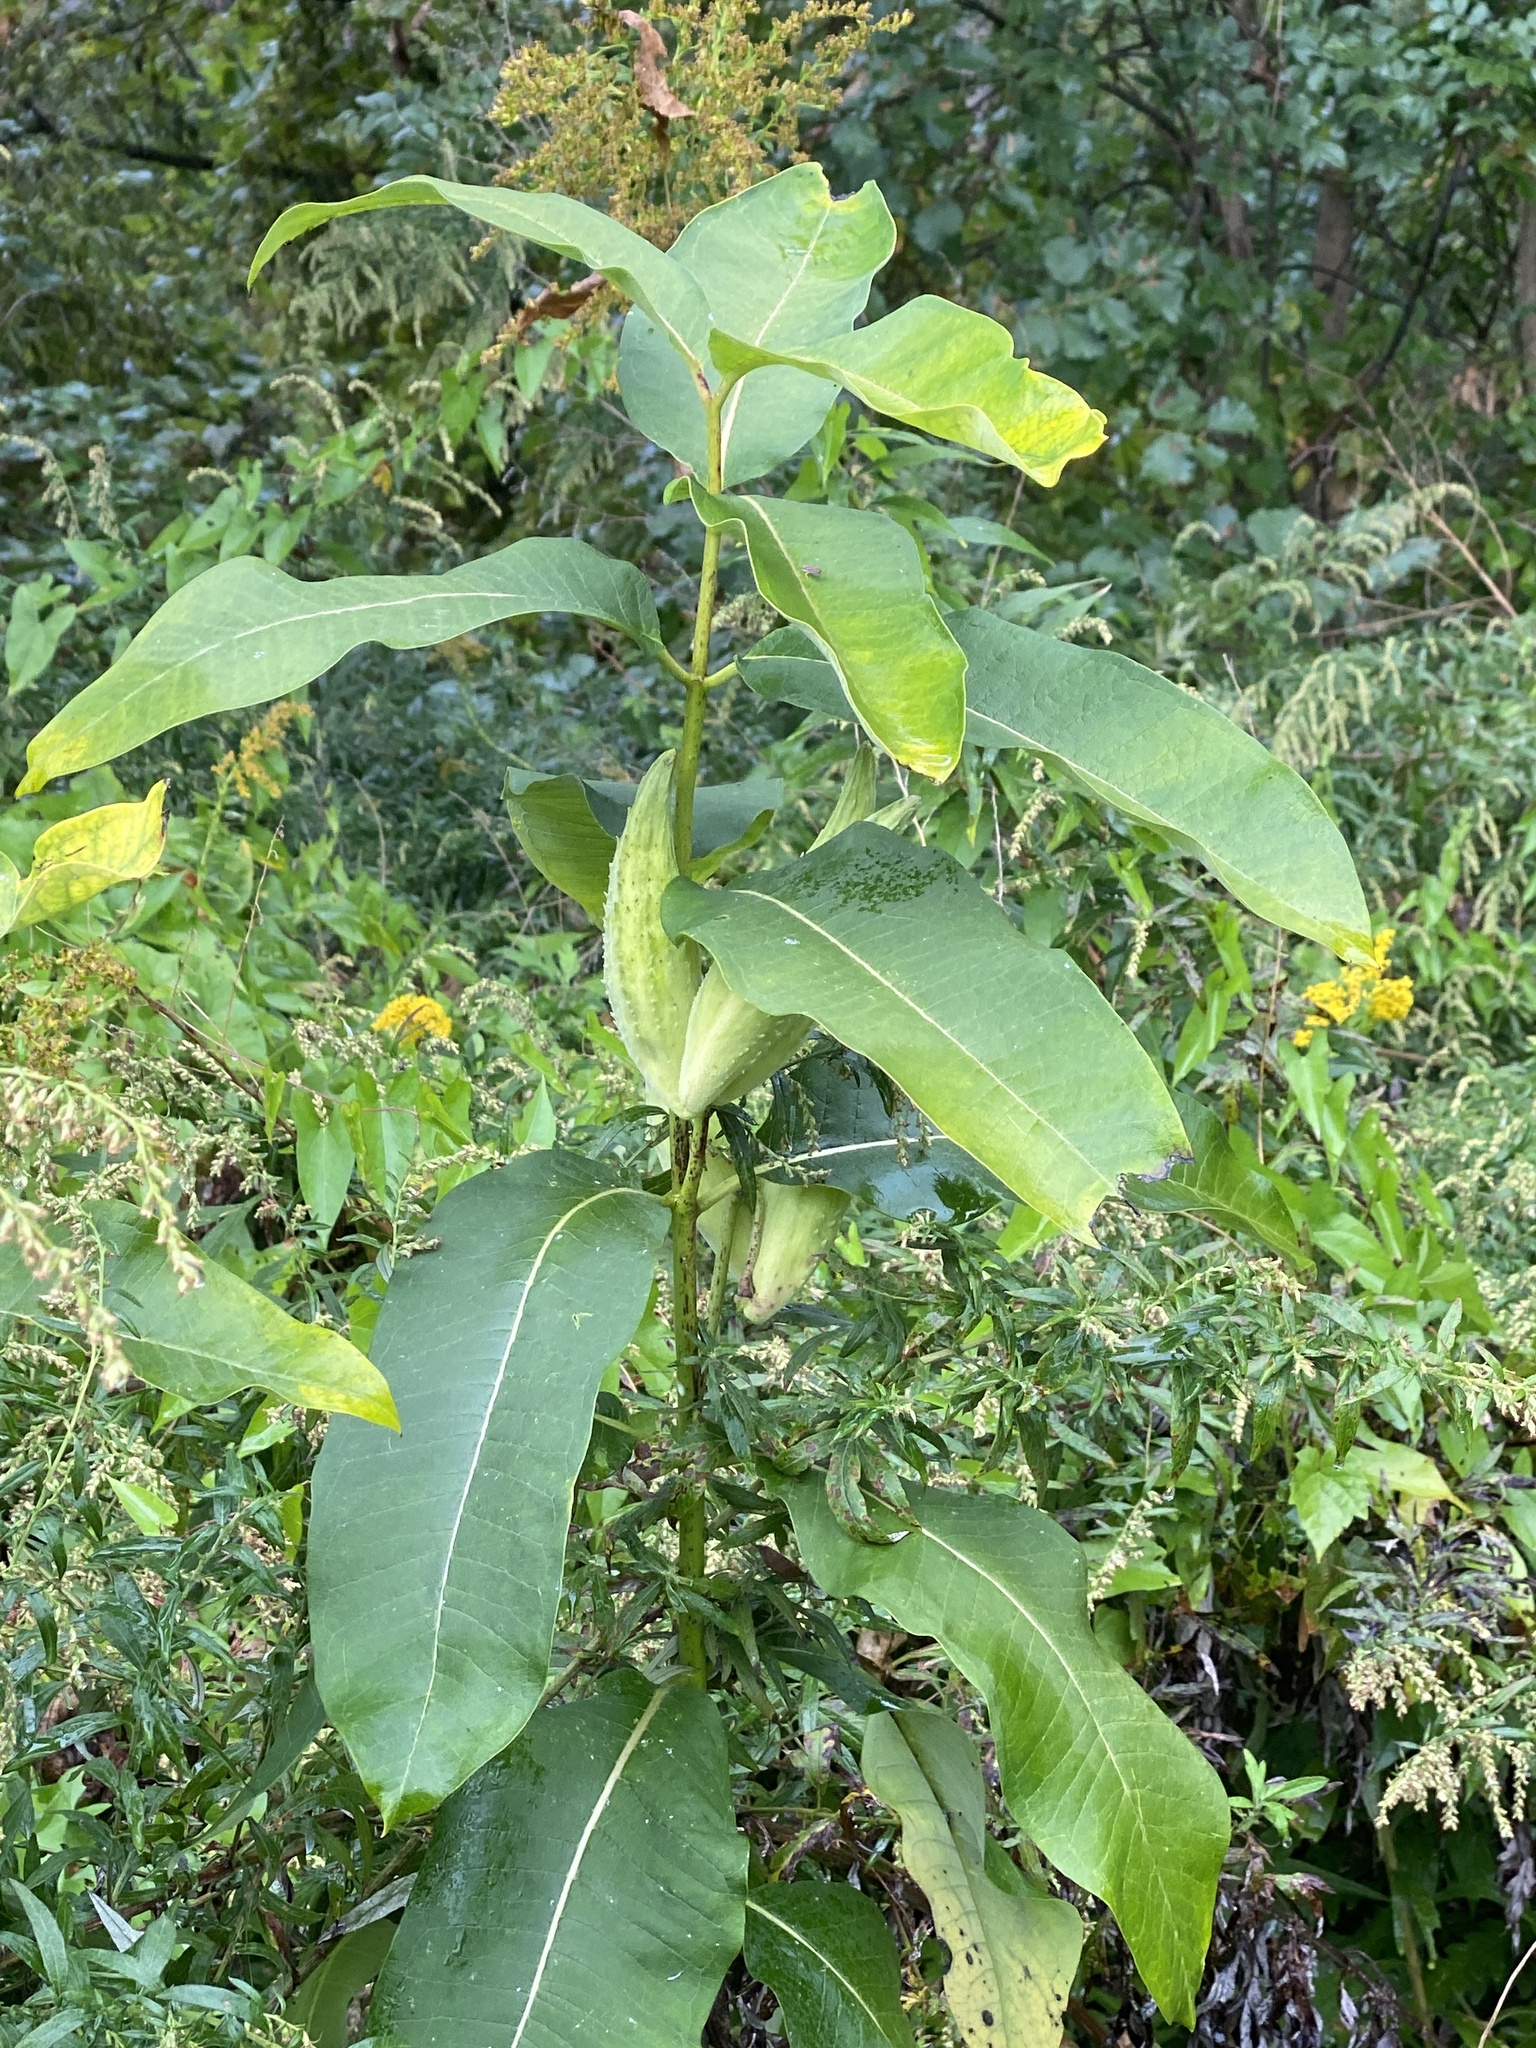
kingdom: Plantae
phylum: Tracheophyta
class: Magnoliopsida
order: Gentianales
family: Apocynaceae
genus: Asclepias
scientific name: Asclepias syriaca
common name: Common milkweed
